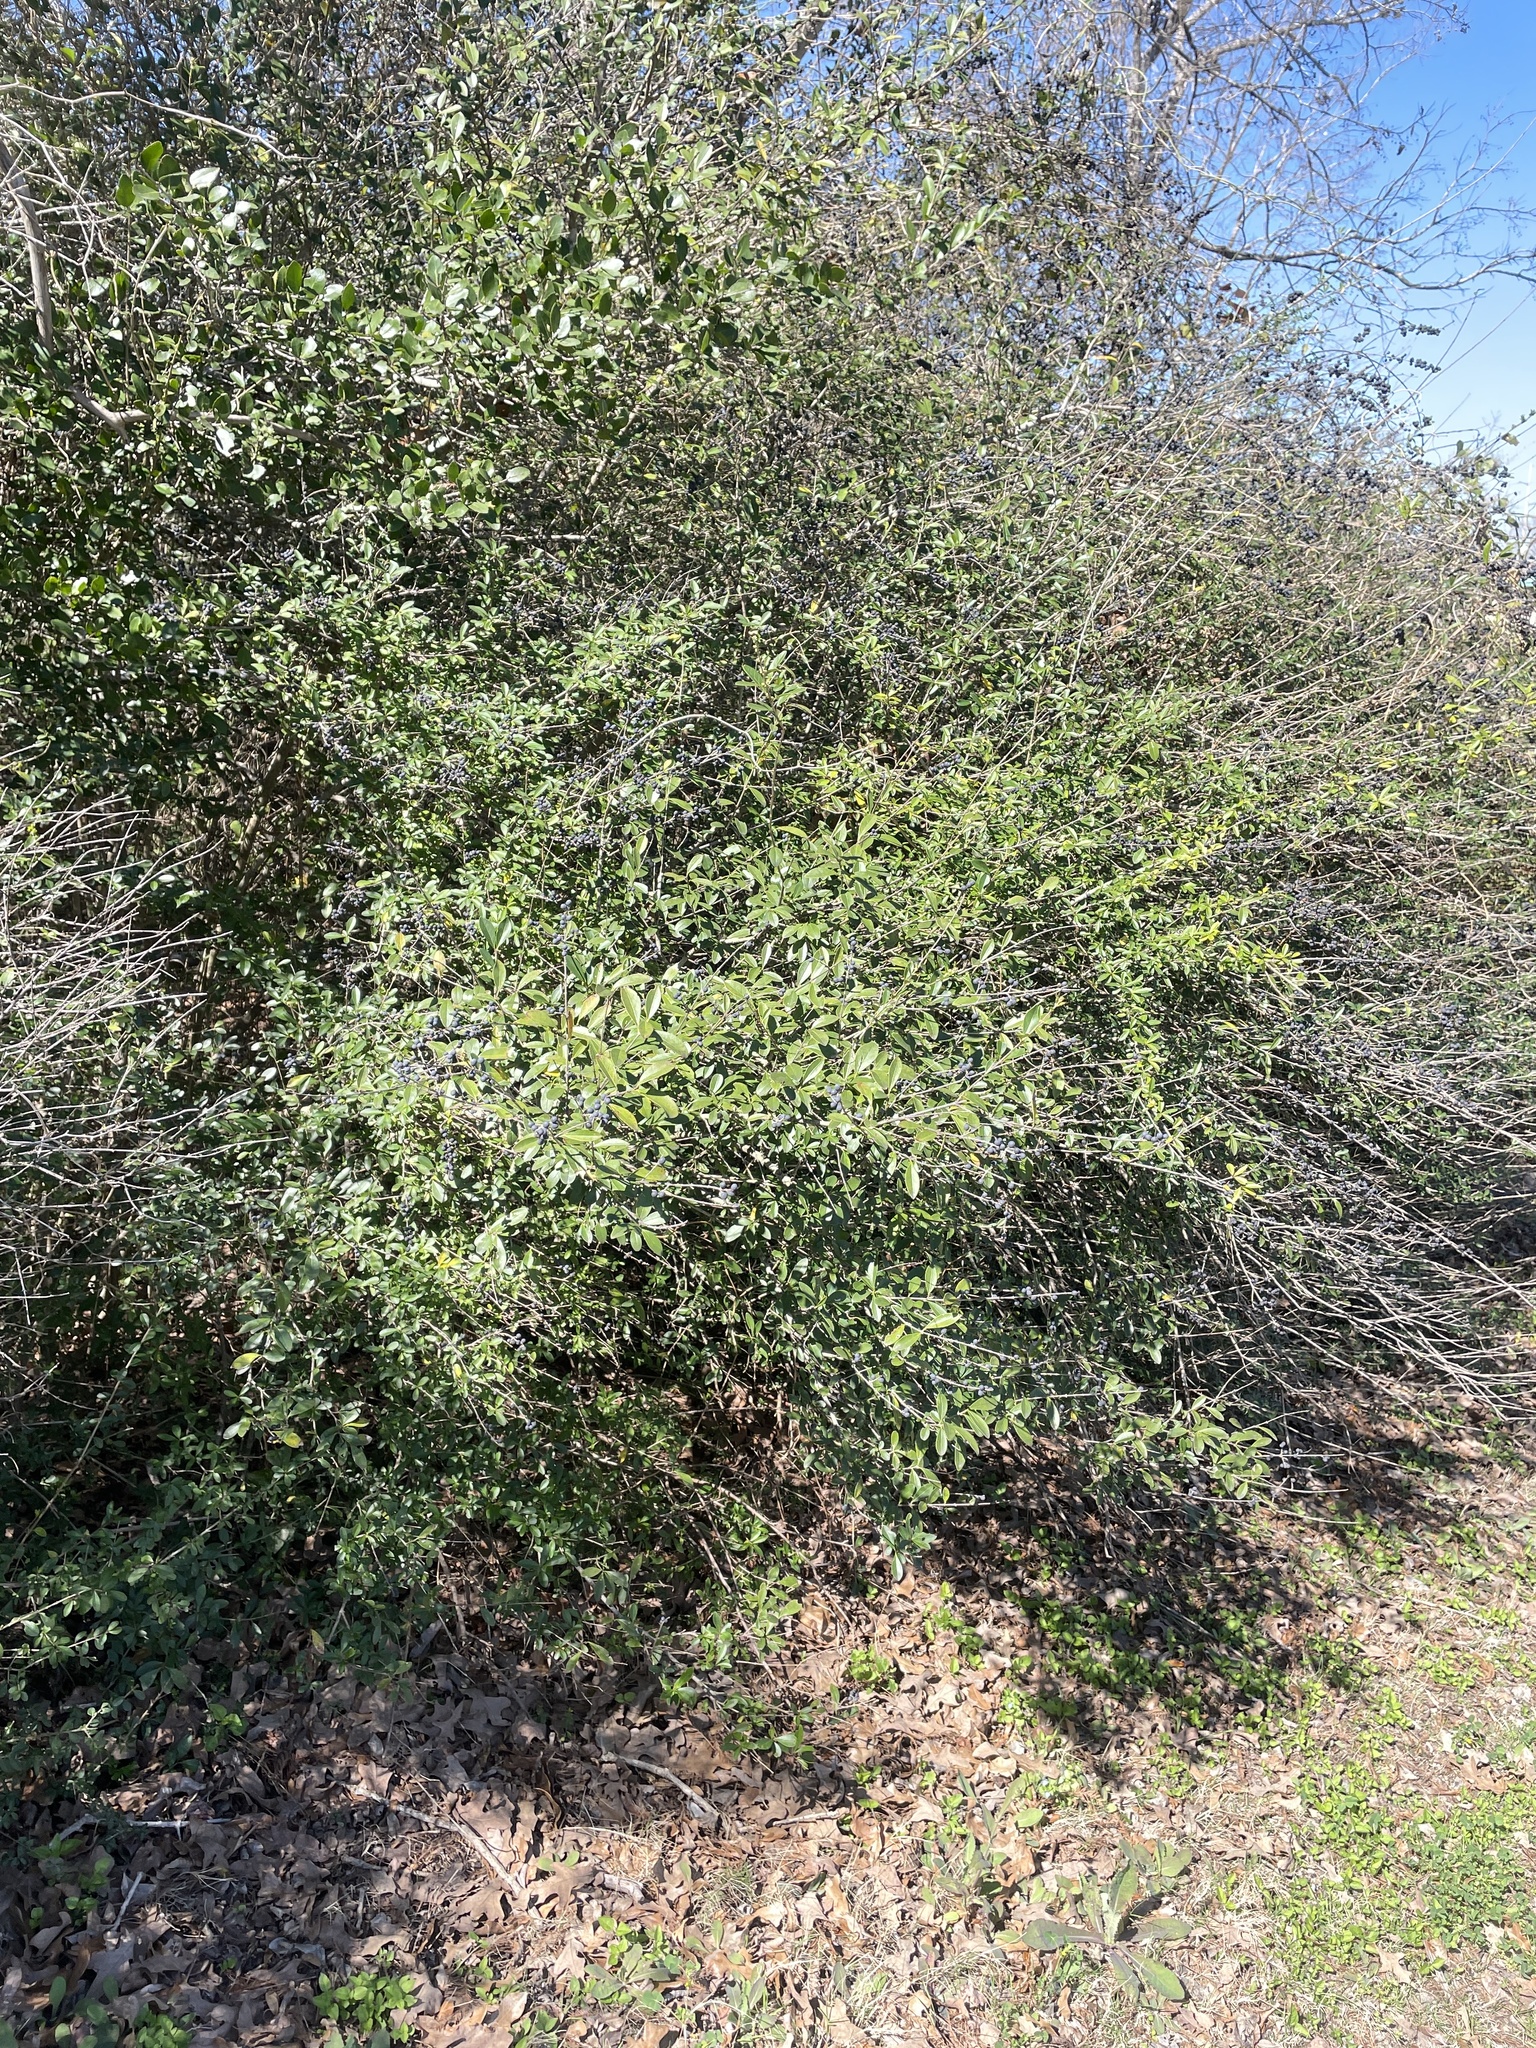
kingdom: Plantae
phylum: Tracheophyta
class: Magnoliopsida
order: Lamiales
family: Oleaceae
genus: Ligustrum
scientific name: Ligustrum quihoui
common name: Waxyleaf privet
